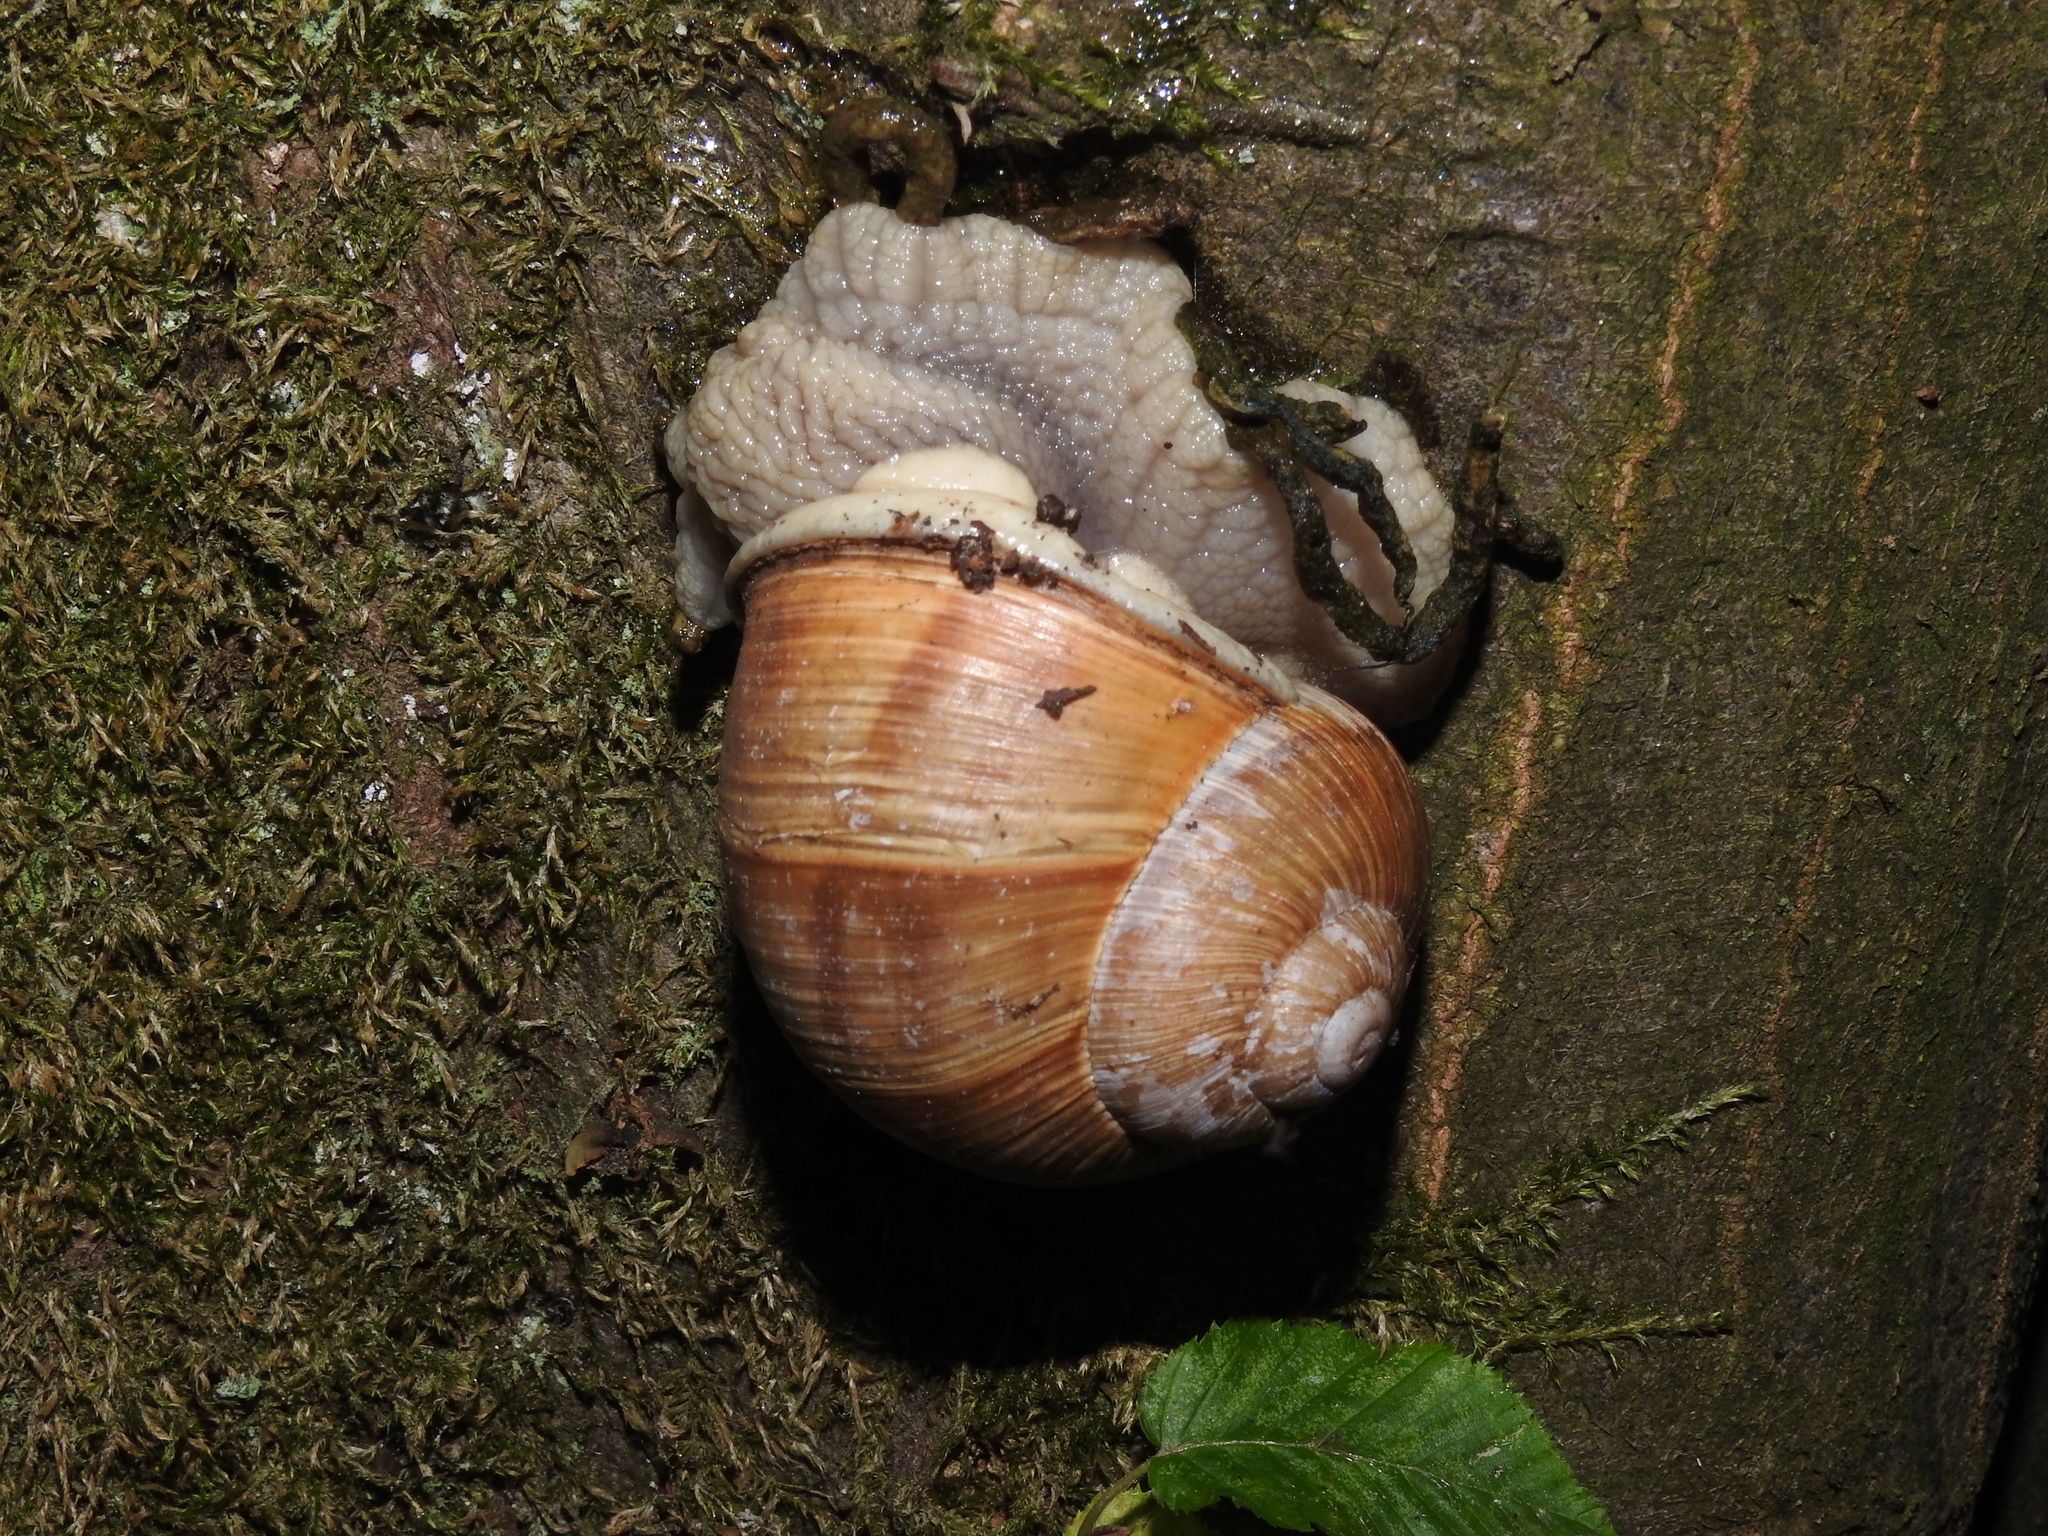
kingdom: Animalia
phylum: Mollusca
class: Gastropoda
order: Stylommatophora
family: Helicidae
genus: Helix
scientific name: Helix pomatia
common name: Roman snail
